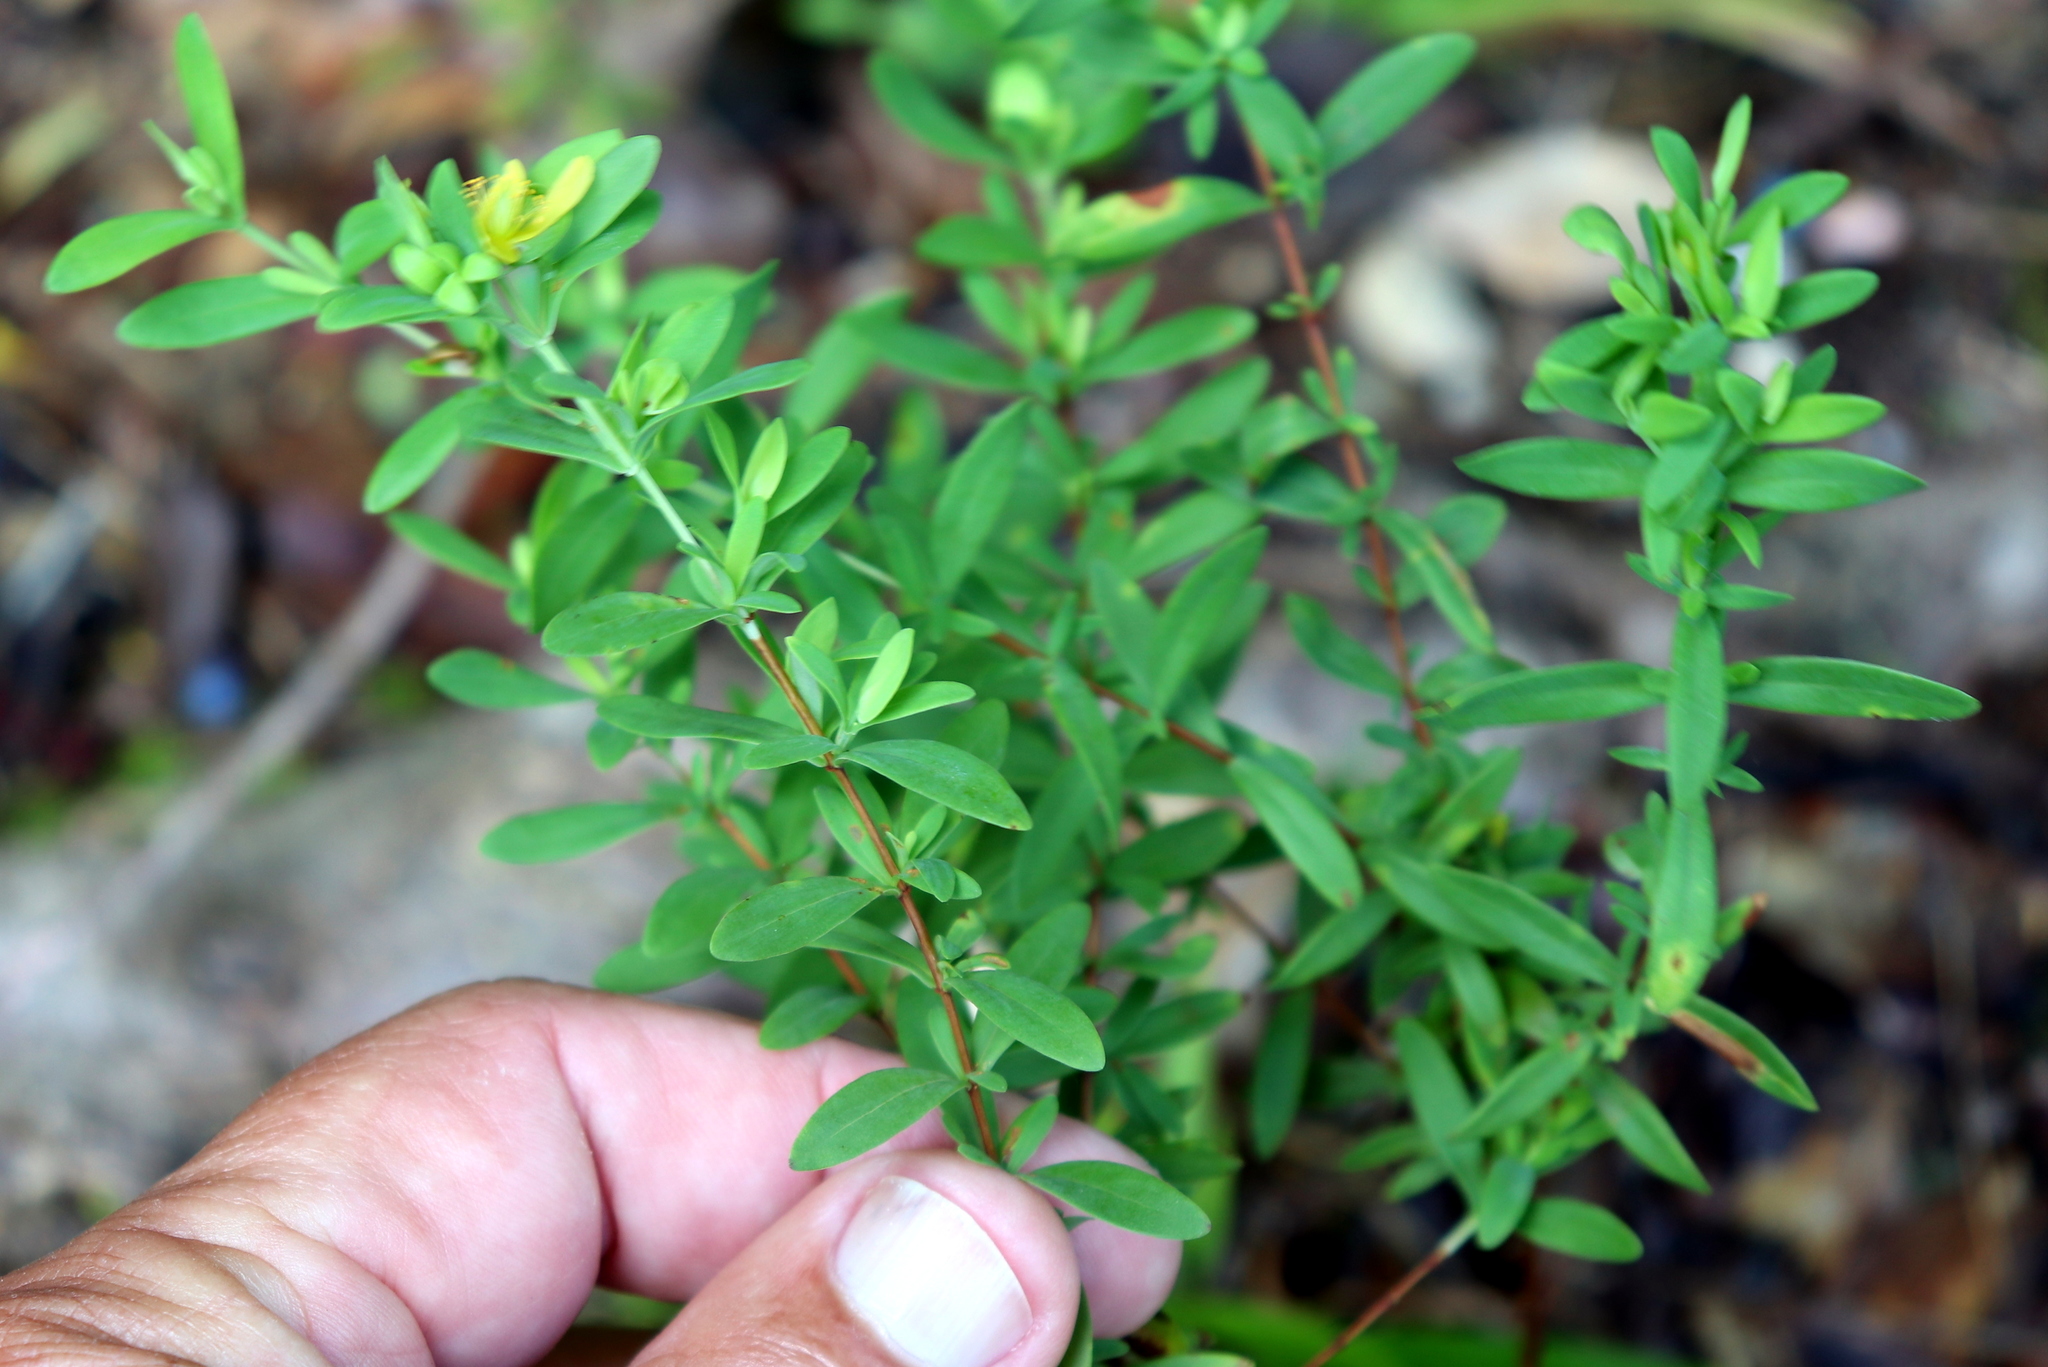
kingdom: Plantae
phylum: Tracheophyta
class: Magnoliopsida
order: Malpighiales
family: Hypericaceae
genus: Hypericum
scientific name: Hypericum hypericoides
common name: St. andrew's cross
